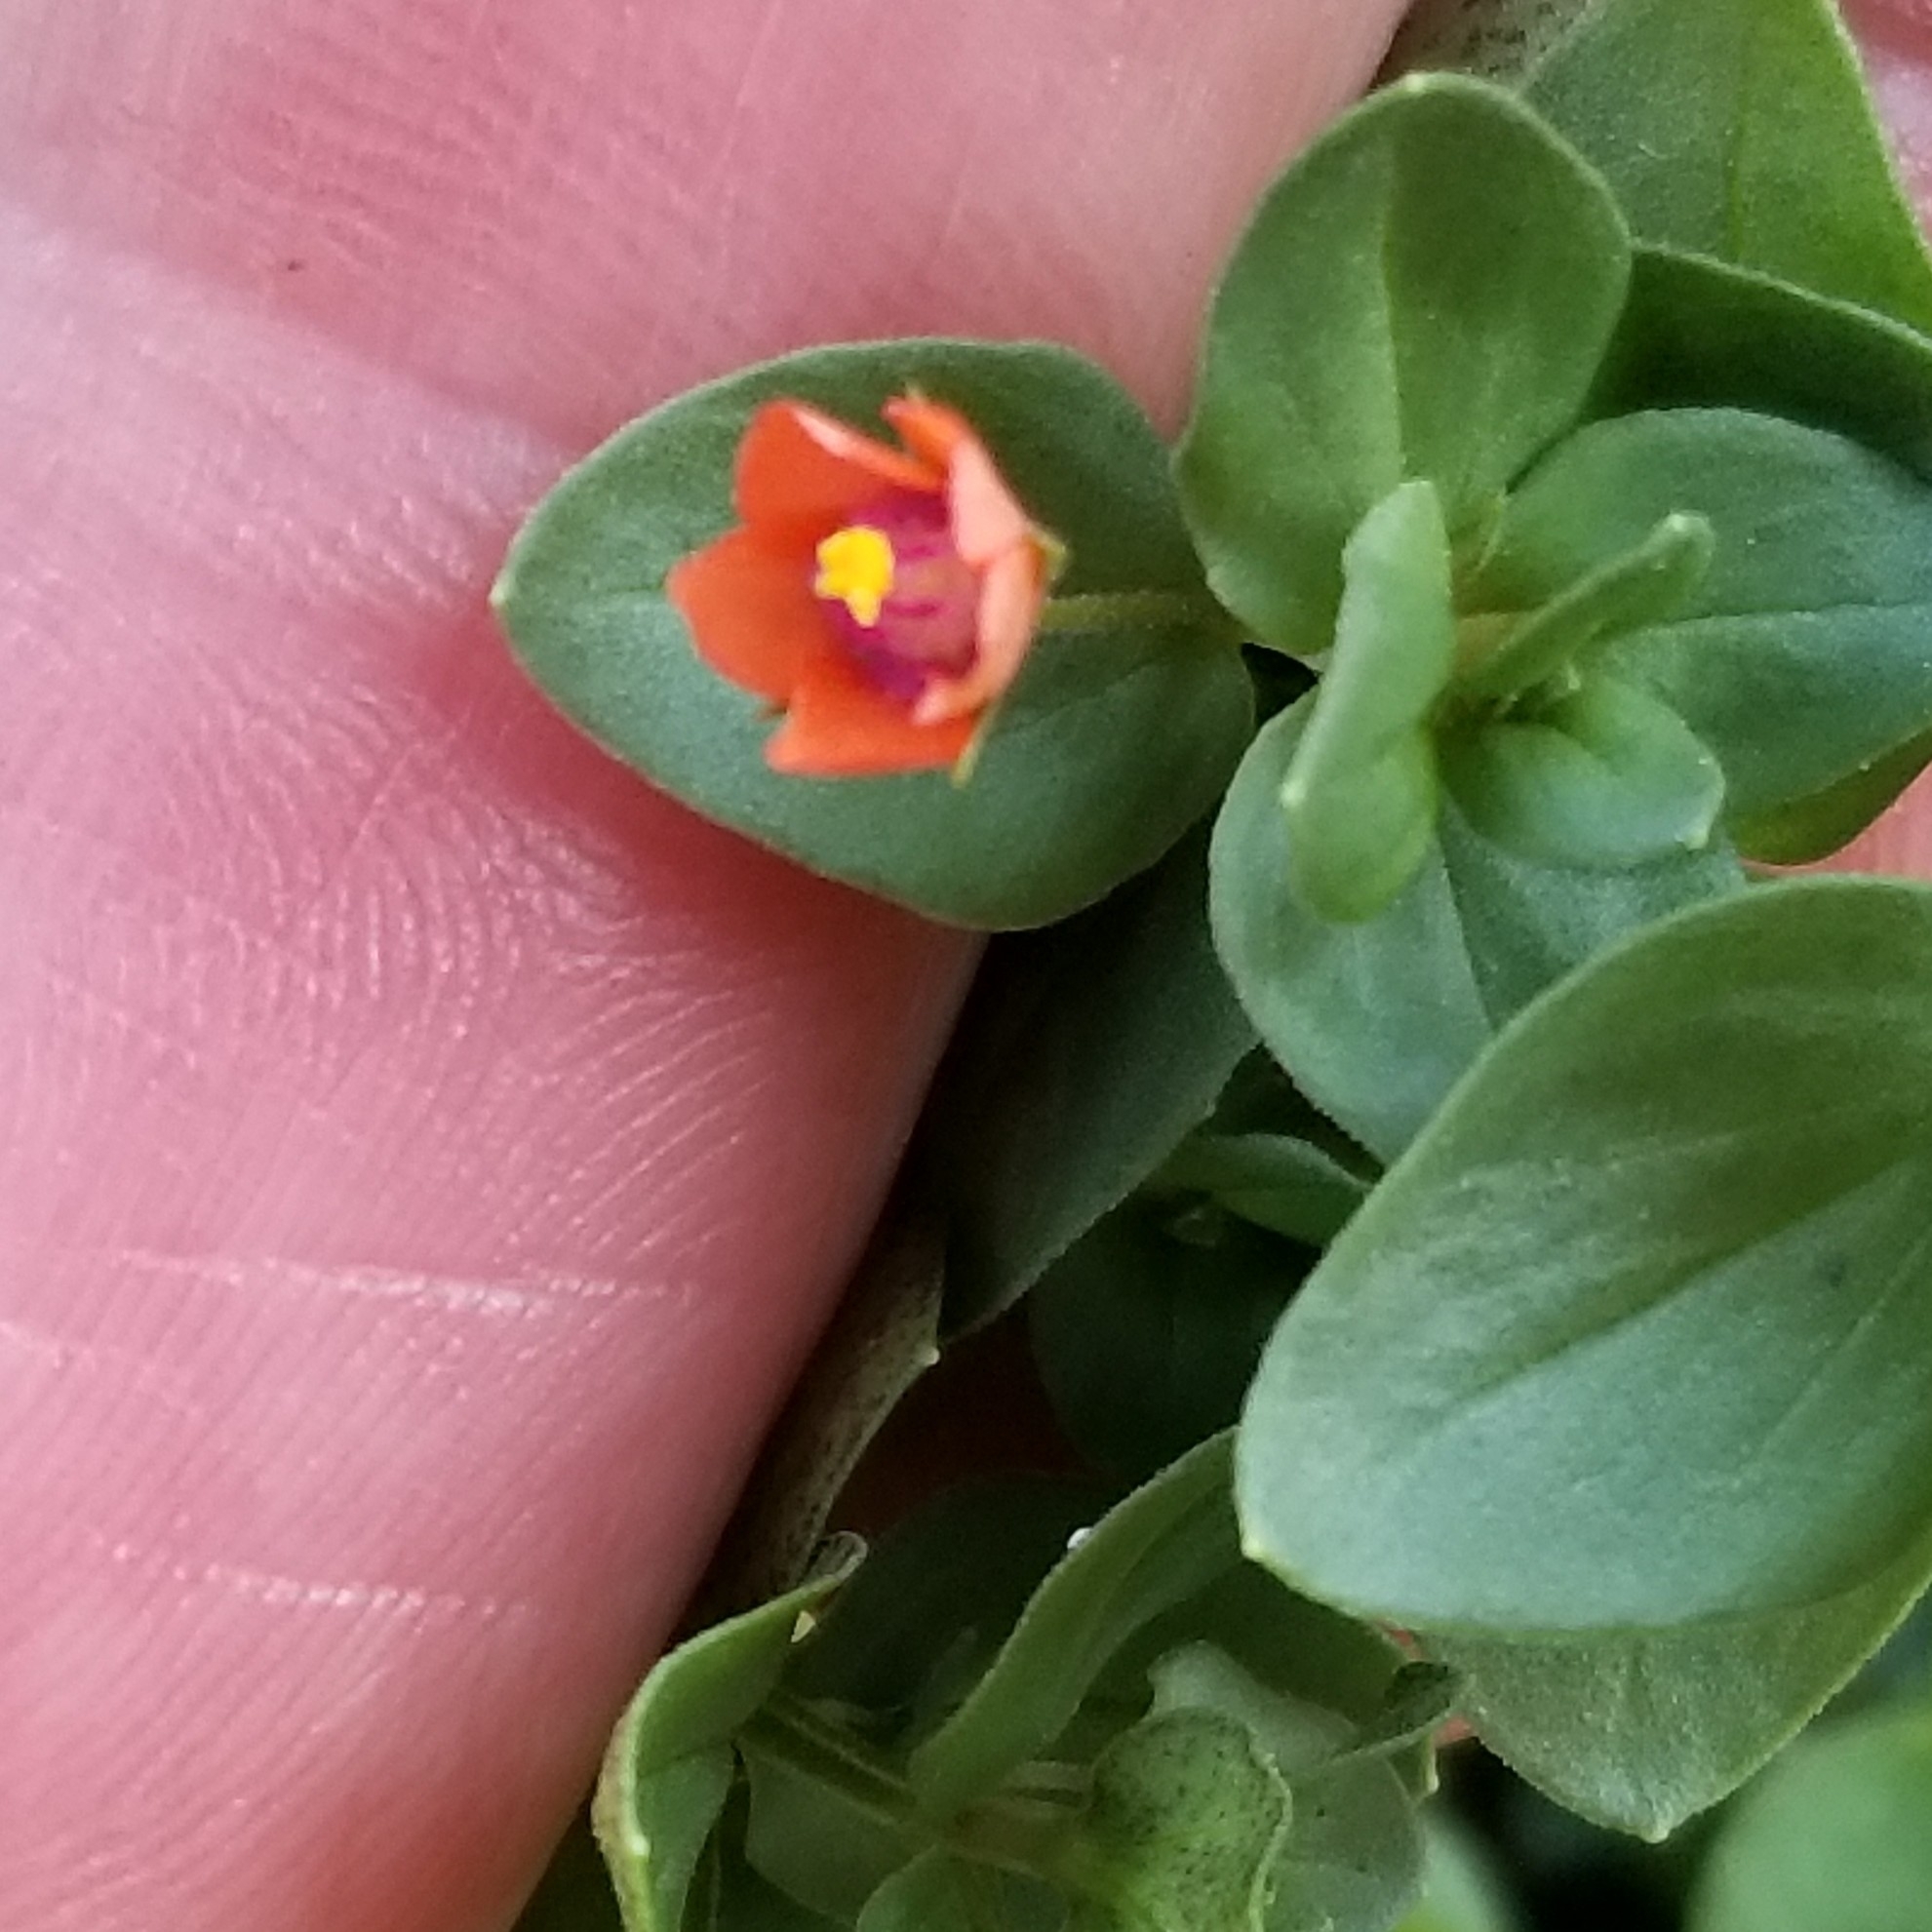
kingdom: Plantae
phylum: Tracheophyta
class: Magnoliopsida
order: Ericales
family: Primulaceae
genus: Lysimachia
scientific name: Lysimachia arvensis
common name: Scarlet pimpernel
